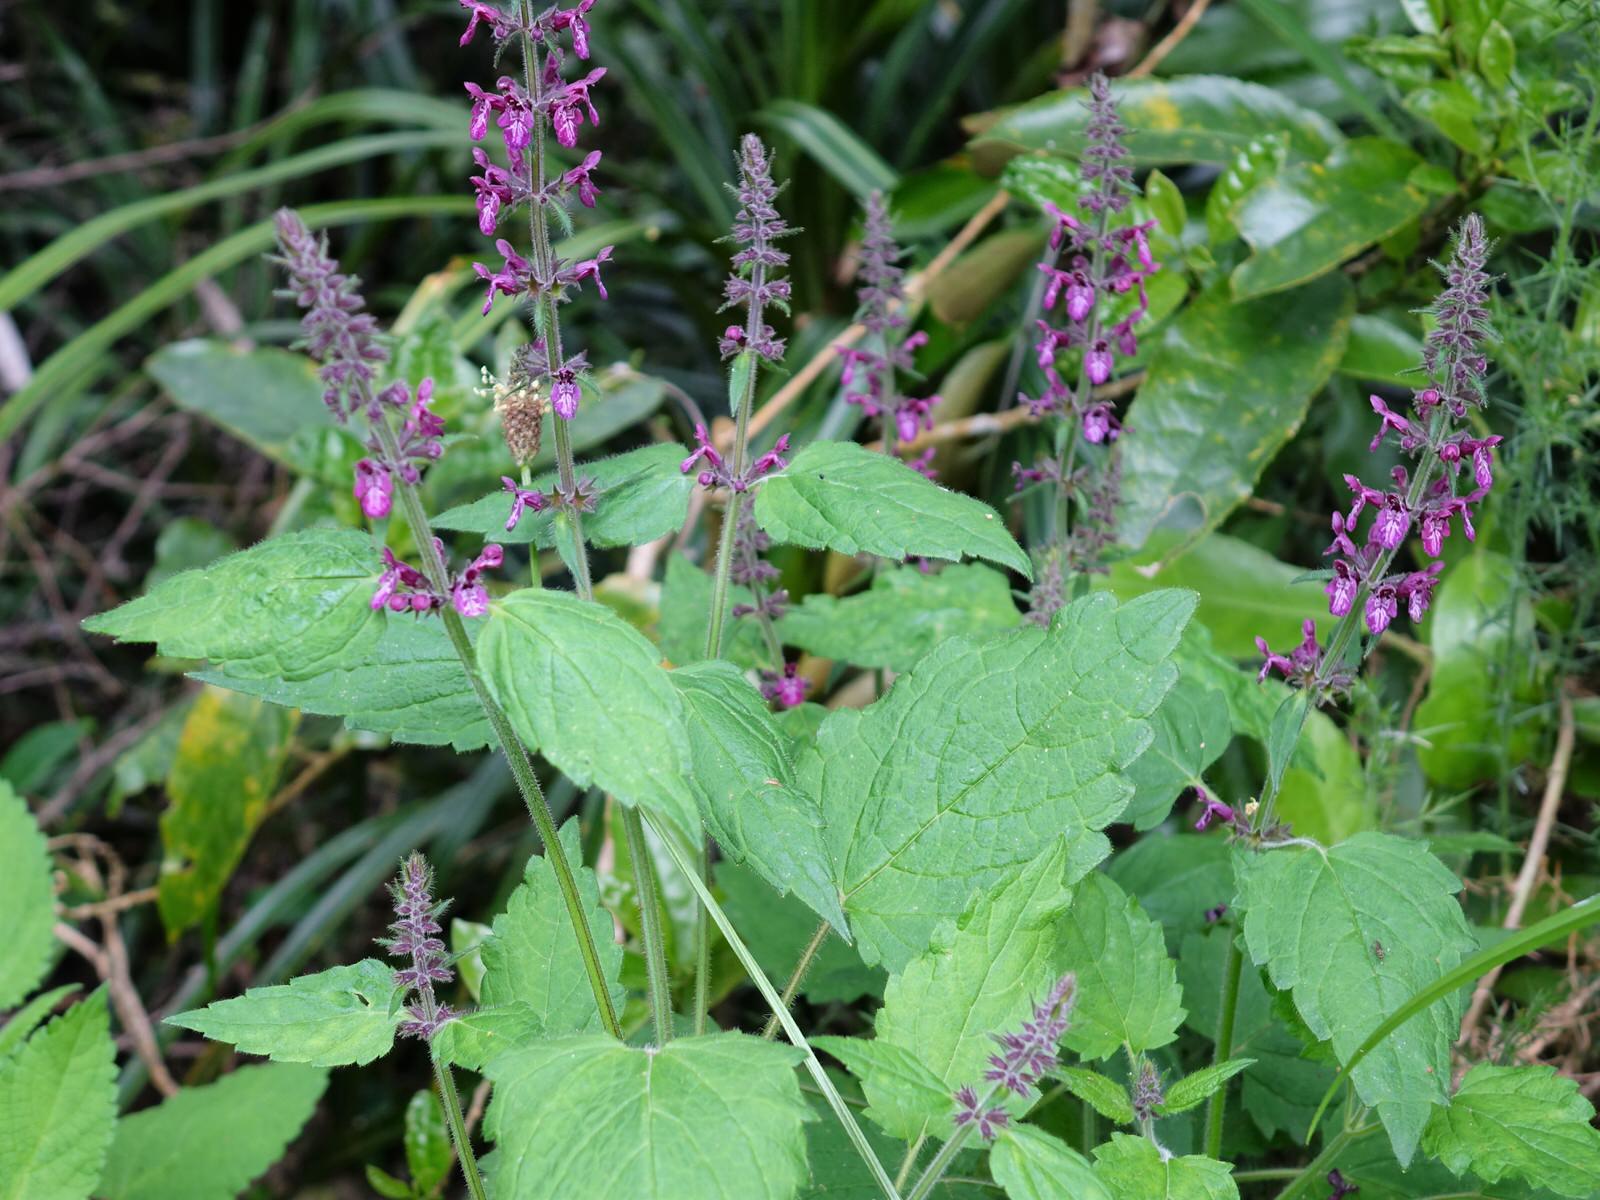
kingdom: Plantae
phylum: Tracheophyta
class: Magnoliopsida
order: Lamiales
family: Lamiaceae
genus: Stachys
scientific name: Stachys sylvatica
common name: Hedge woundwort
